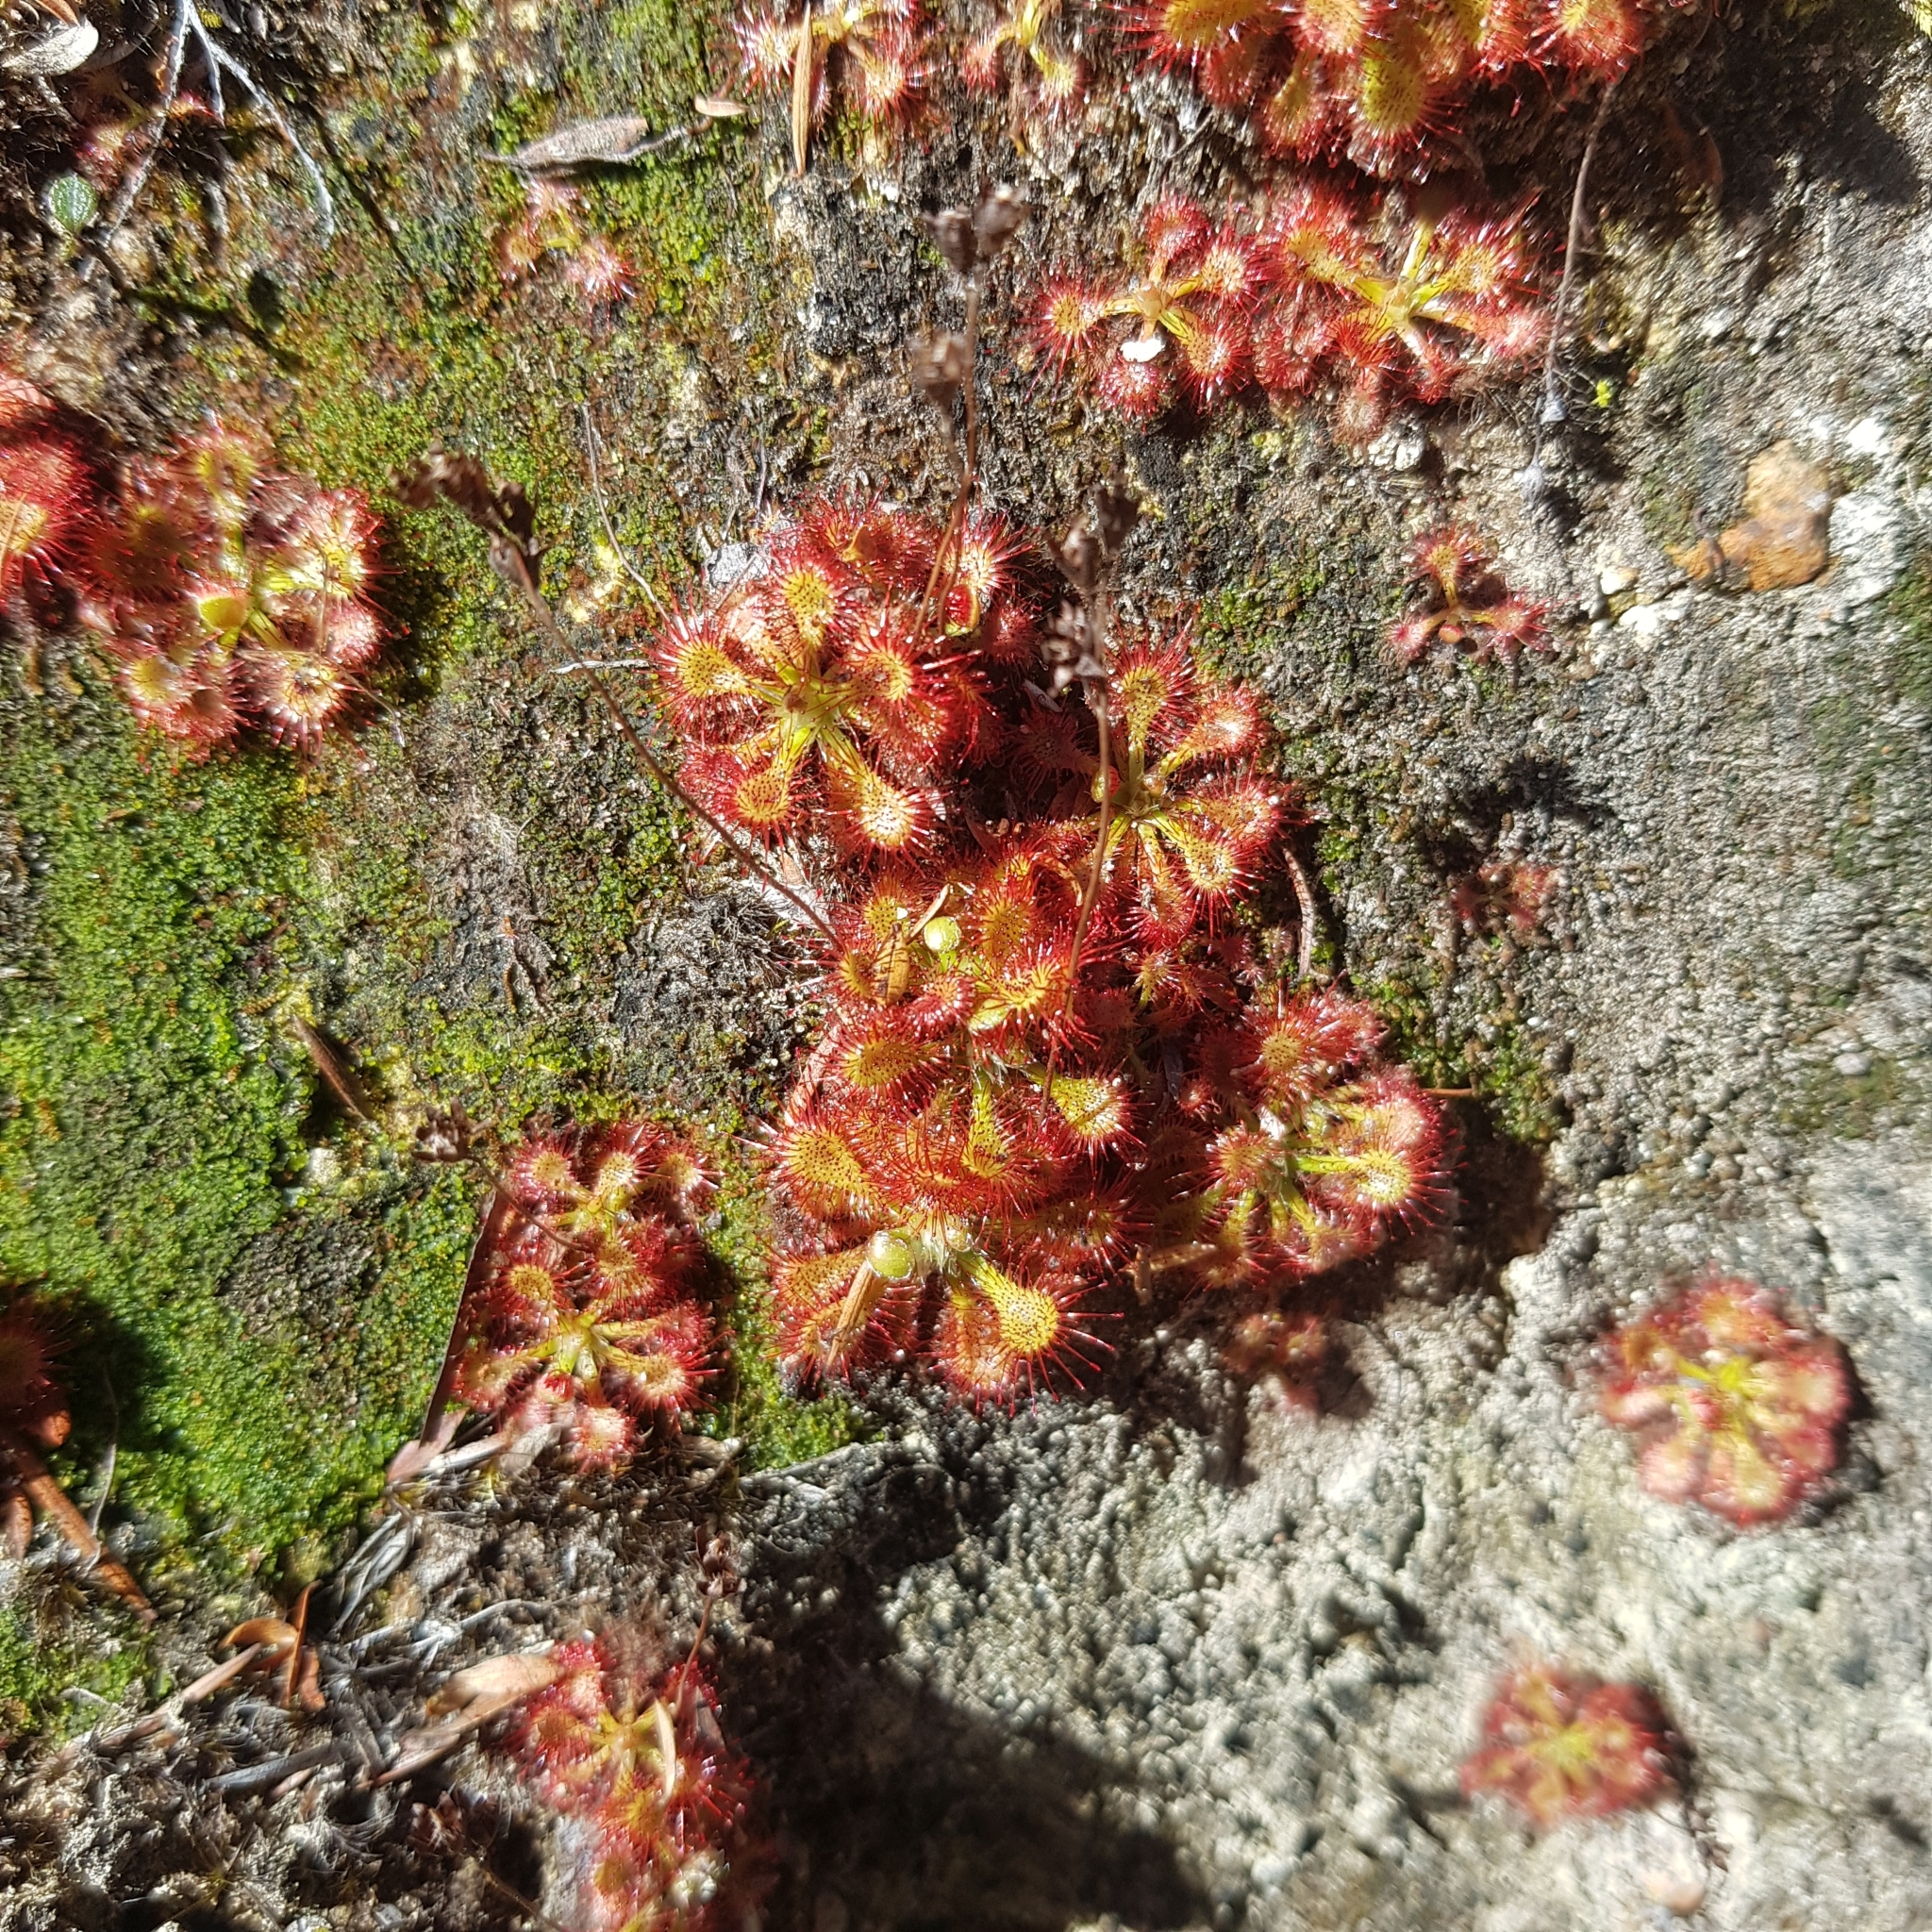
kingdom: Plantae
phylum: Tracheophyta
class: Magnoliopsida
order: Caryophyllales
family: Droseraceae
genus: Drosera
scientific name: Drosera spatulata
